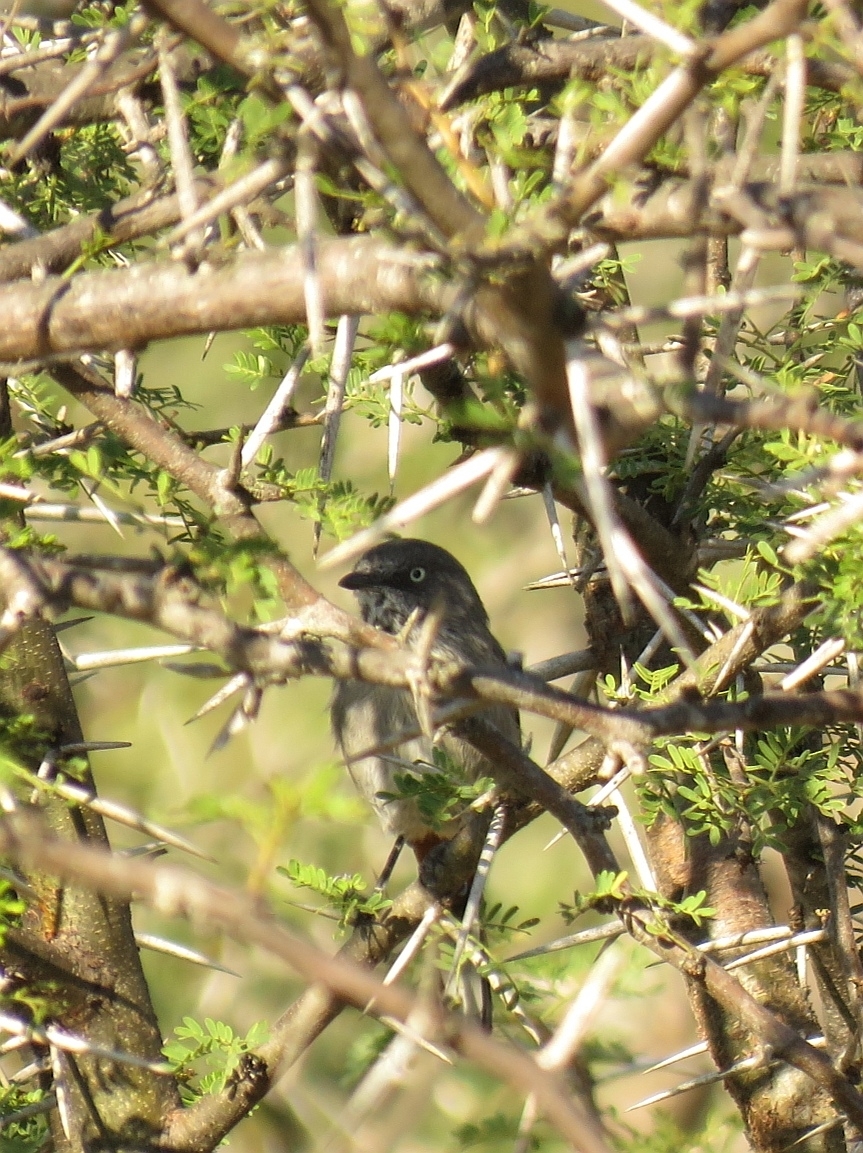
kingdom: Animalia
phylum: Chordata
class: Aves
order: Passeriformes
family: Sylviidae
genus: Curruca
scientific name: Curruca subcoerulea
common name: Chestnut-vented warbler
